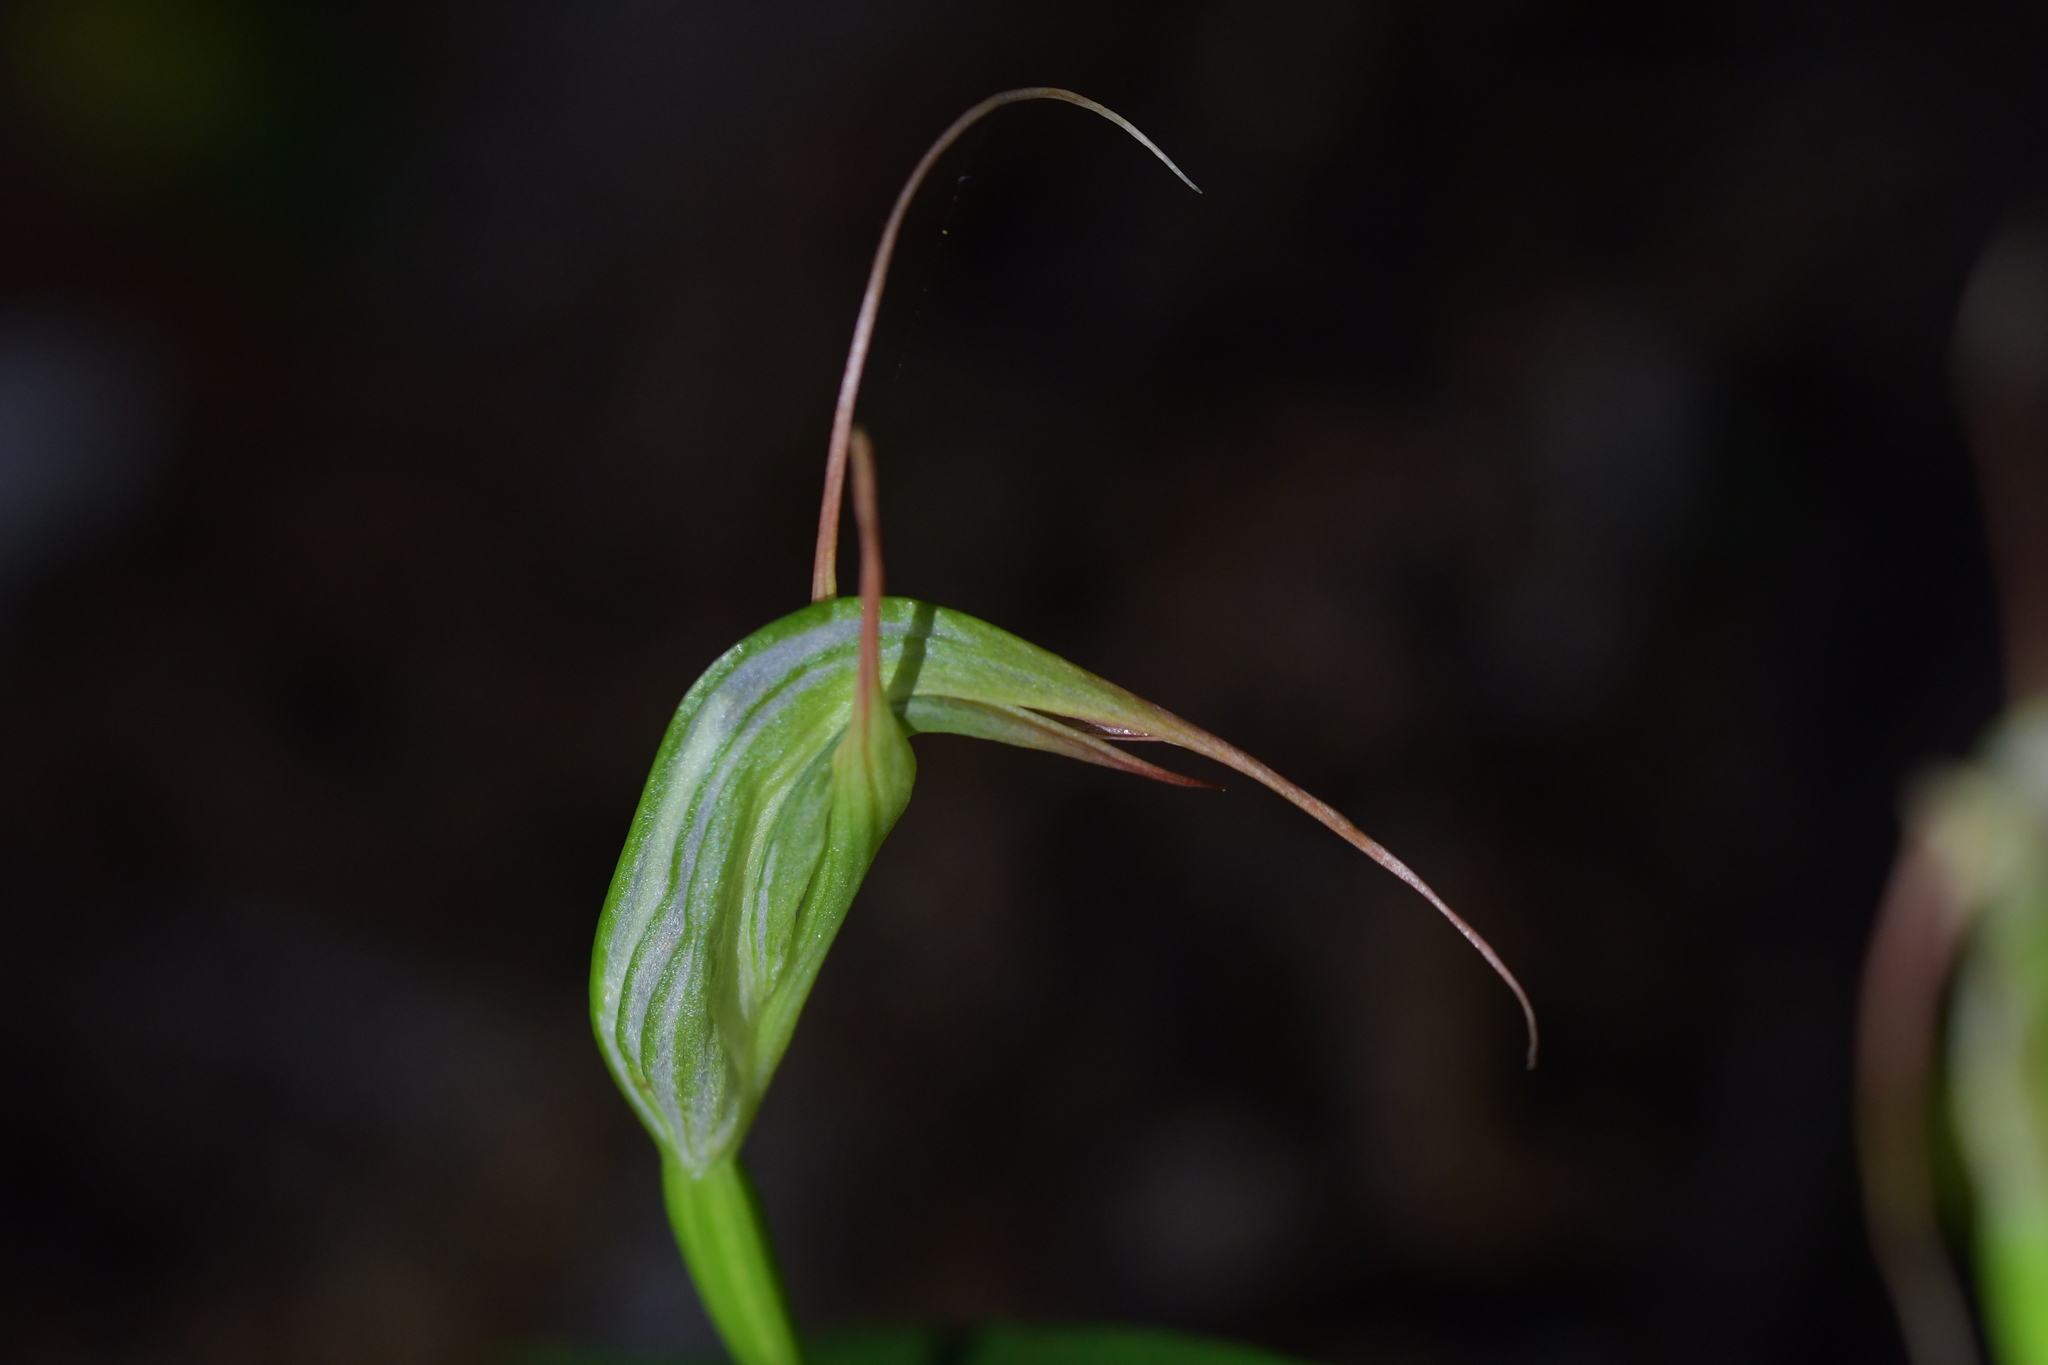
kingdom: Plantae
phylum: Tracheophyta
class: Liliopsida
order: Asparagales
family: Orchidaceae
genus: Pterostylis
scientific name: Pterostylis banksii
